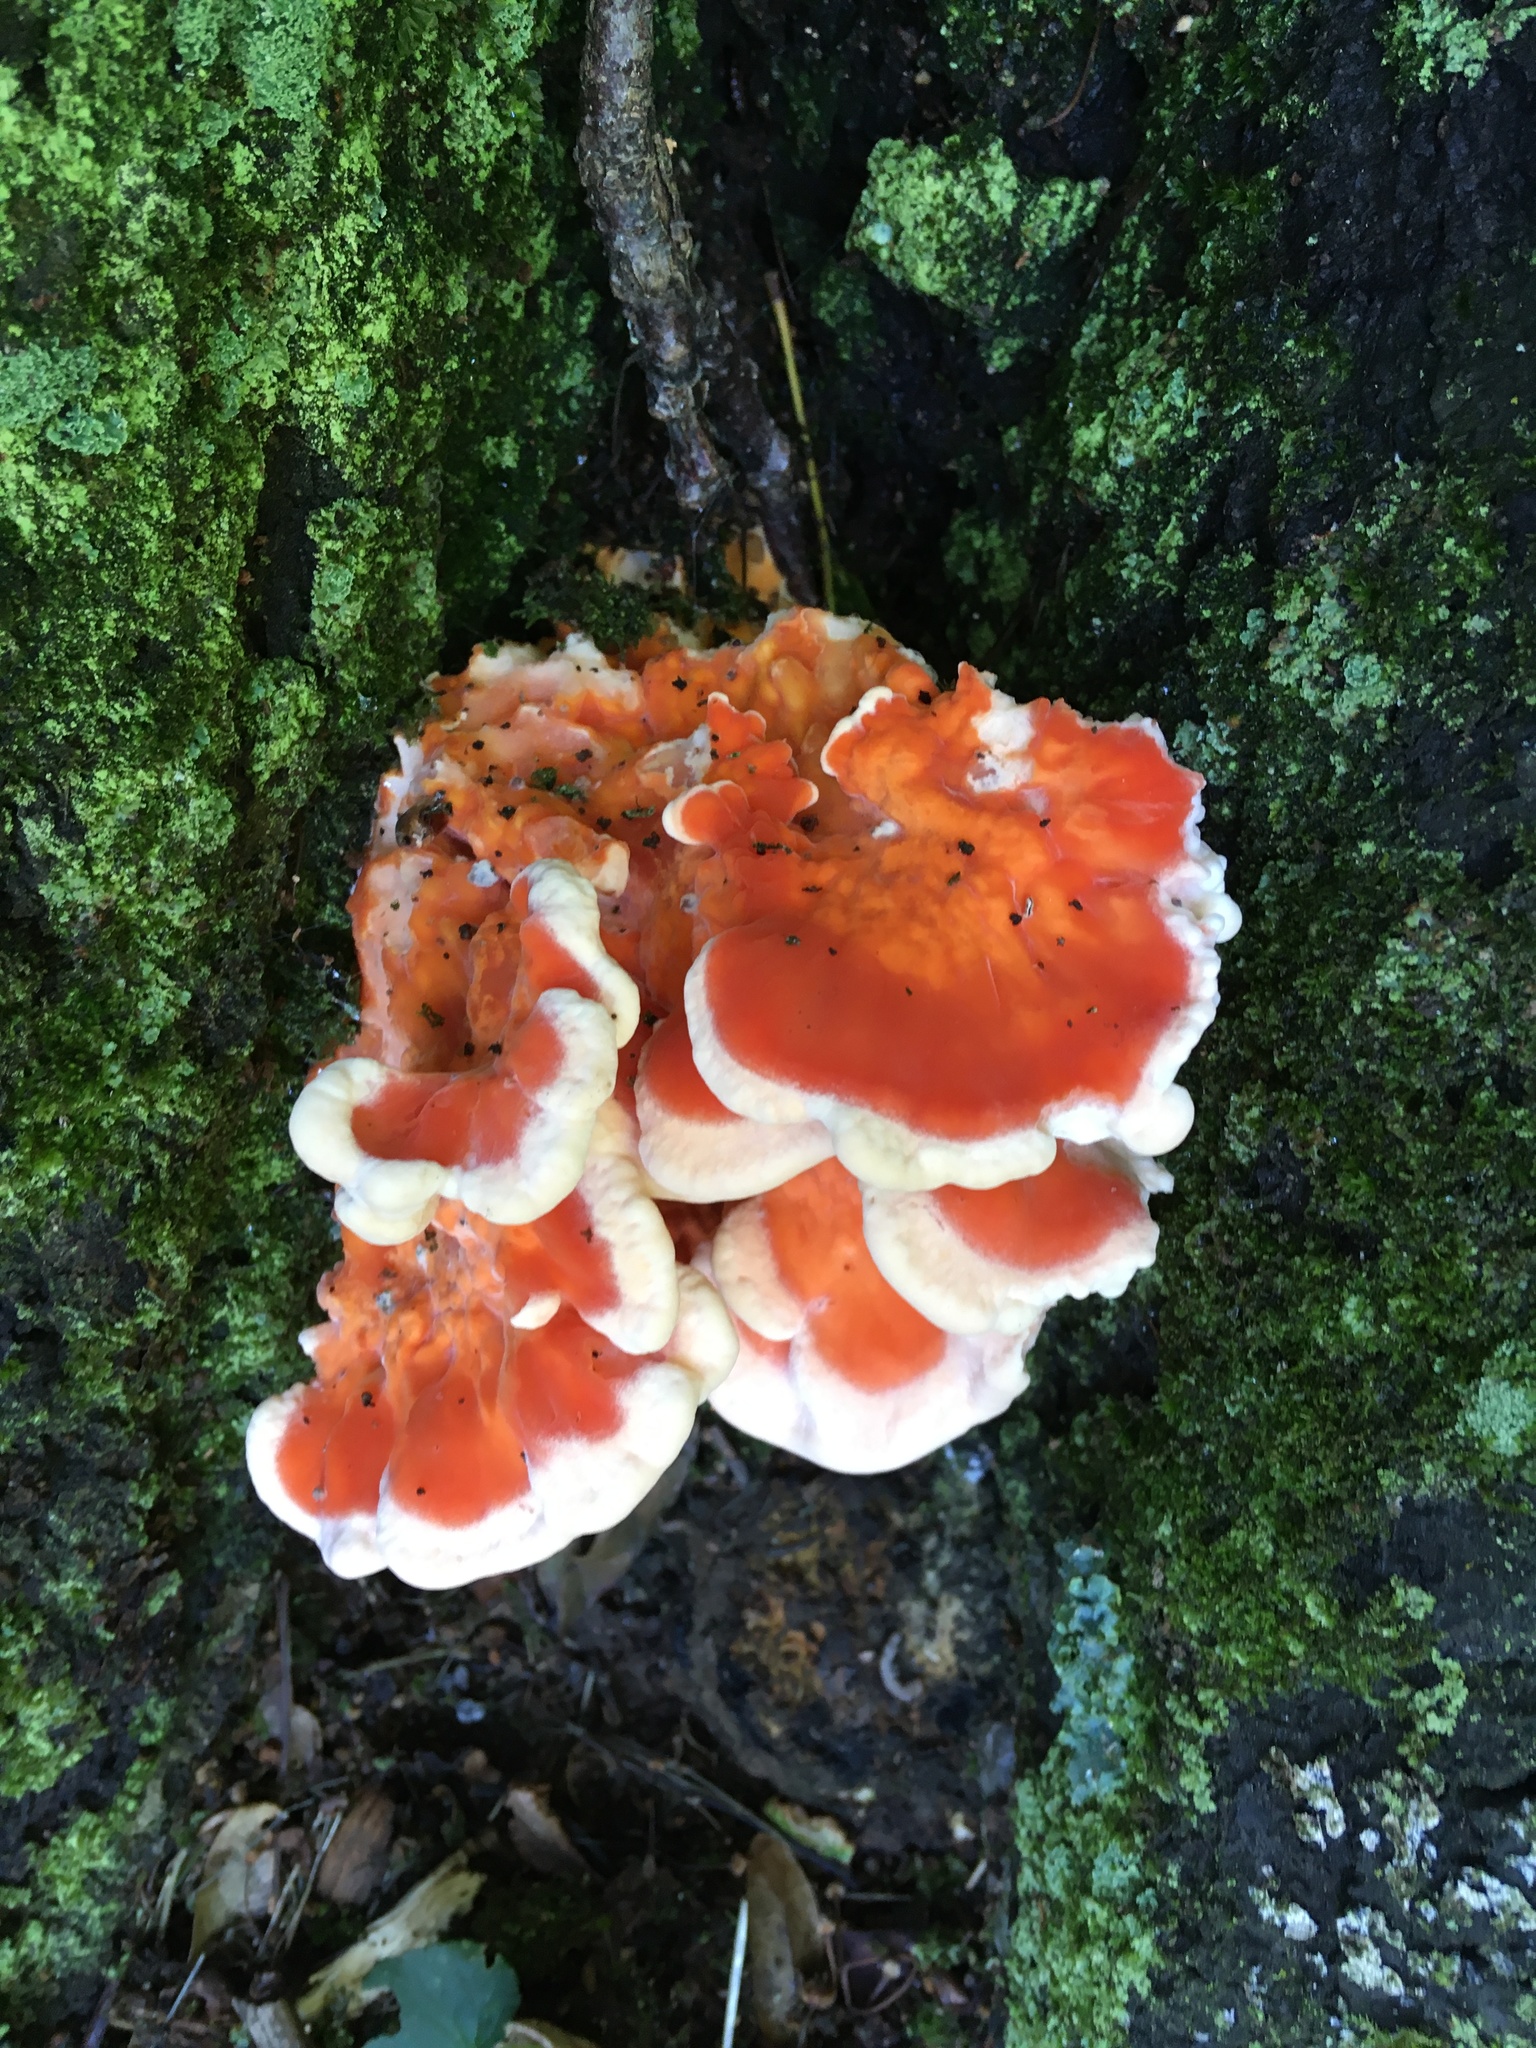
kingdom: Fungi
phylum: Basidiomycota
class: Agaricomycetes
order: Polyporales
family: Laetiporaceae
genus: Laetiporus
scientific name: Laetiporus sulphureus
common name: Chicken of the woods
